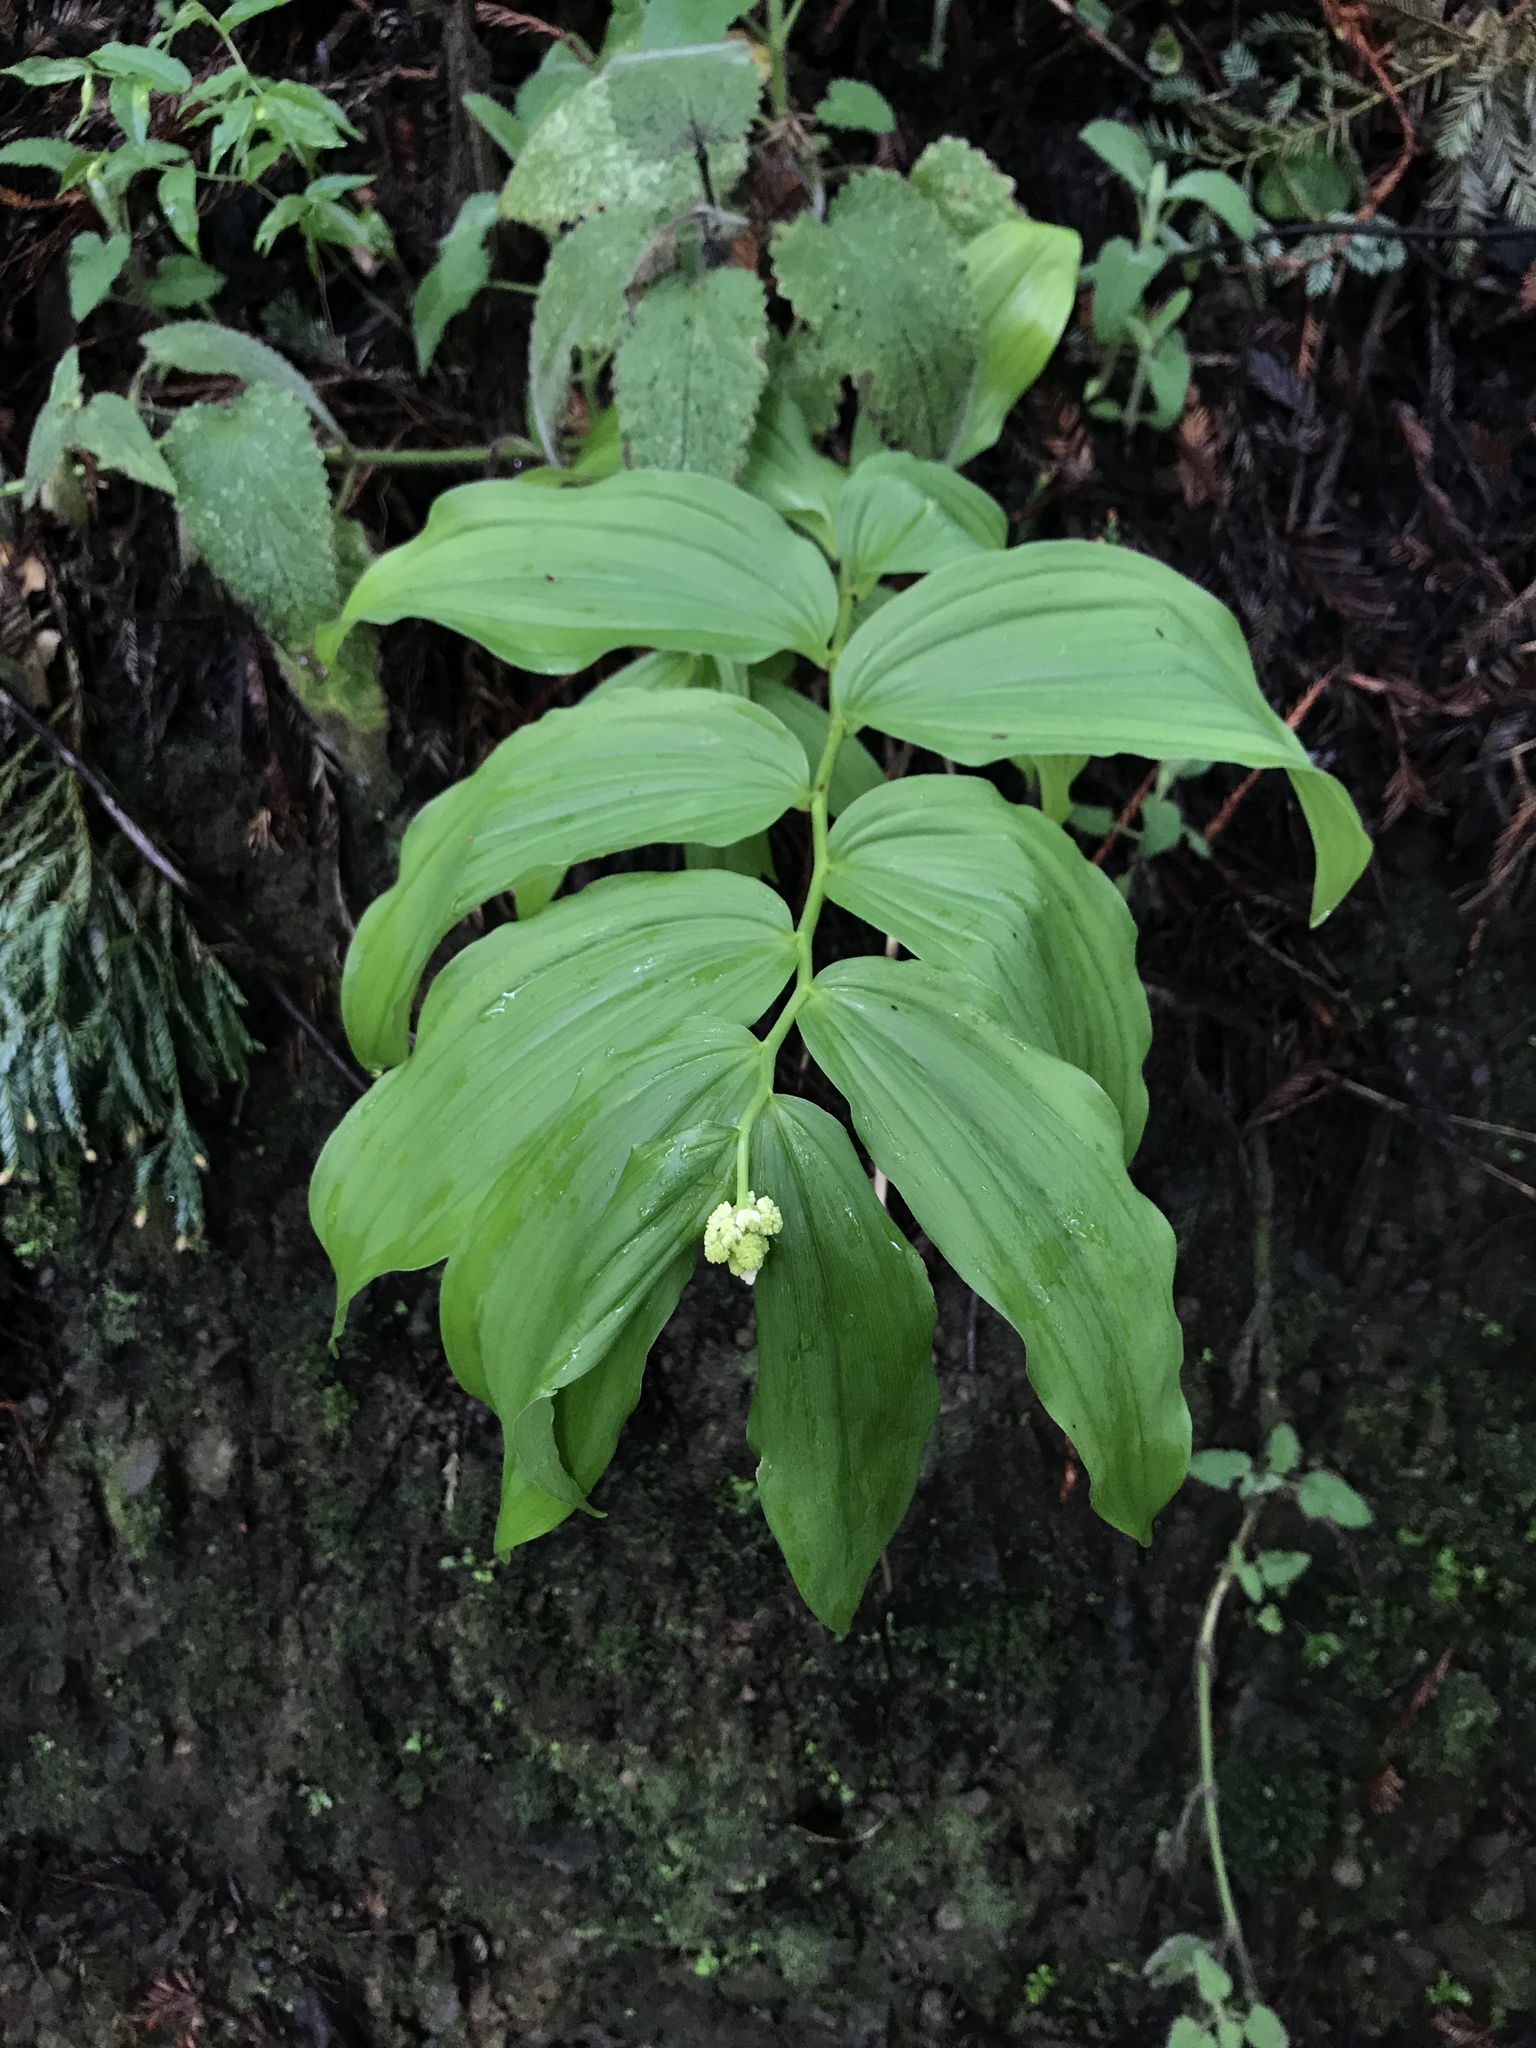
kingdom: Plantae
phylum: Tracheophyta
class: Liliopsida
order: Asparagales
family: Asparagaceae
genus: Maianthemum
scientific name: Maianthemum racemosum
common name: False spikenard
